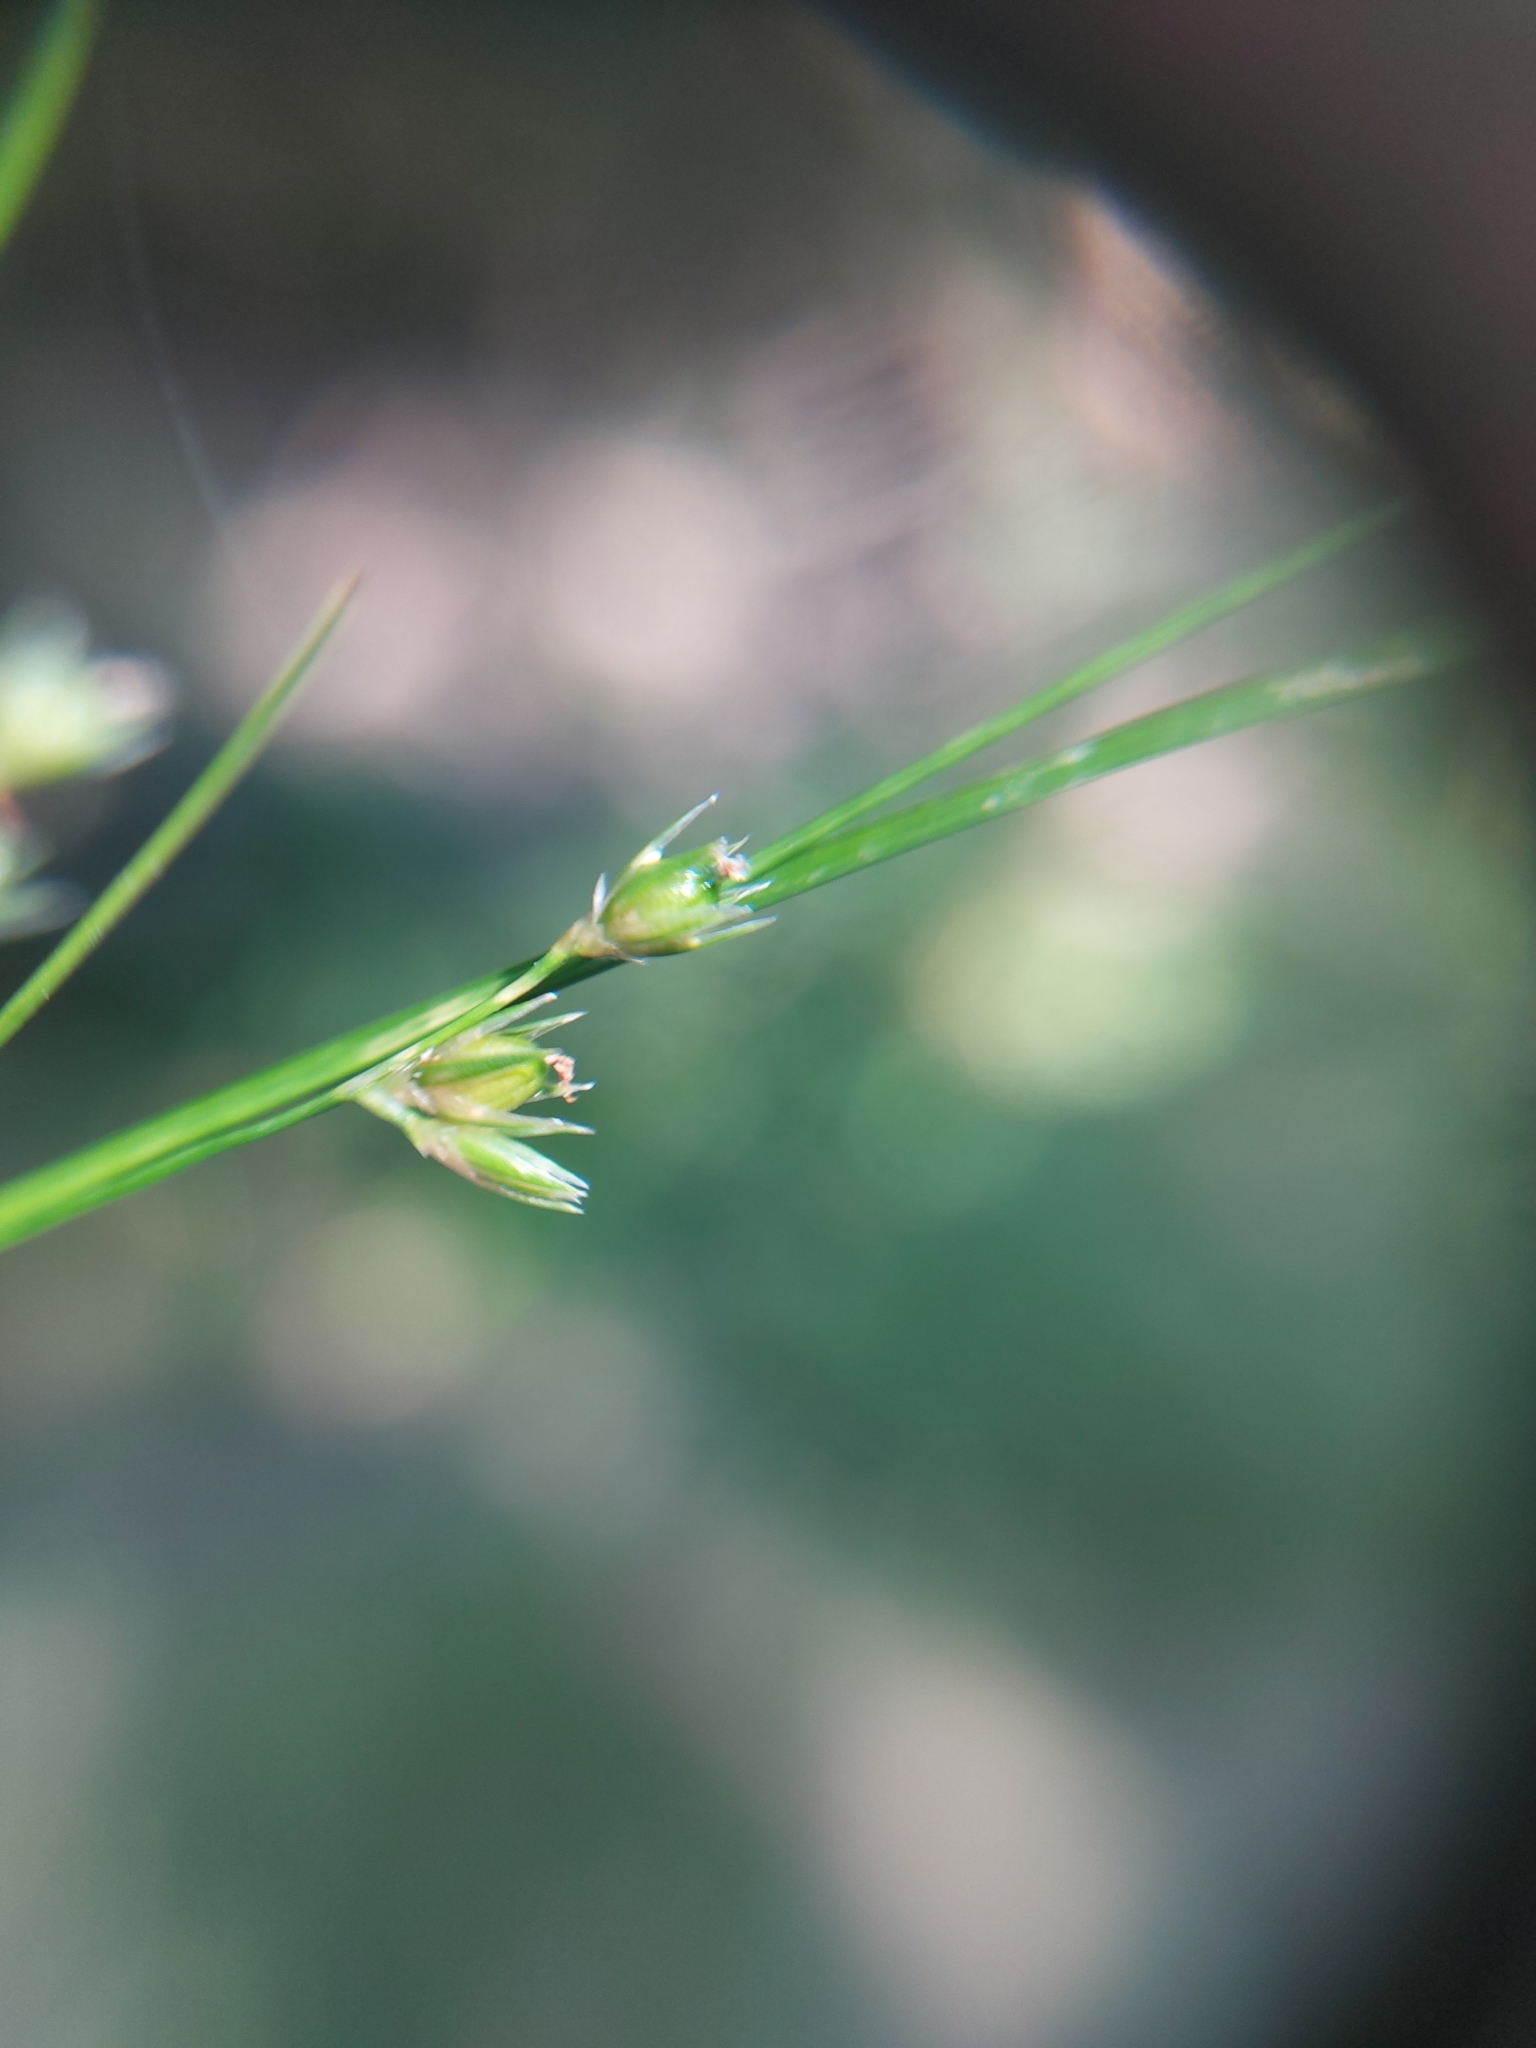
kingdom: Plantae
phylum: Tracheophyta
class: Liliopsida
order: Poales
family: Juncaceae
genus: Juncus
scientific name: Juncus tenuis
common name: Slender rush
